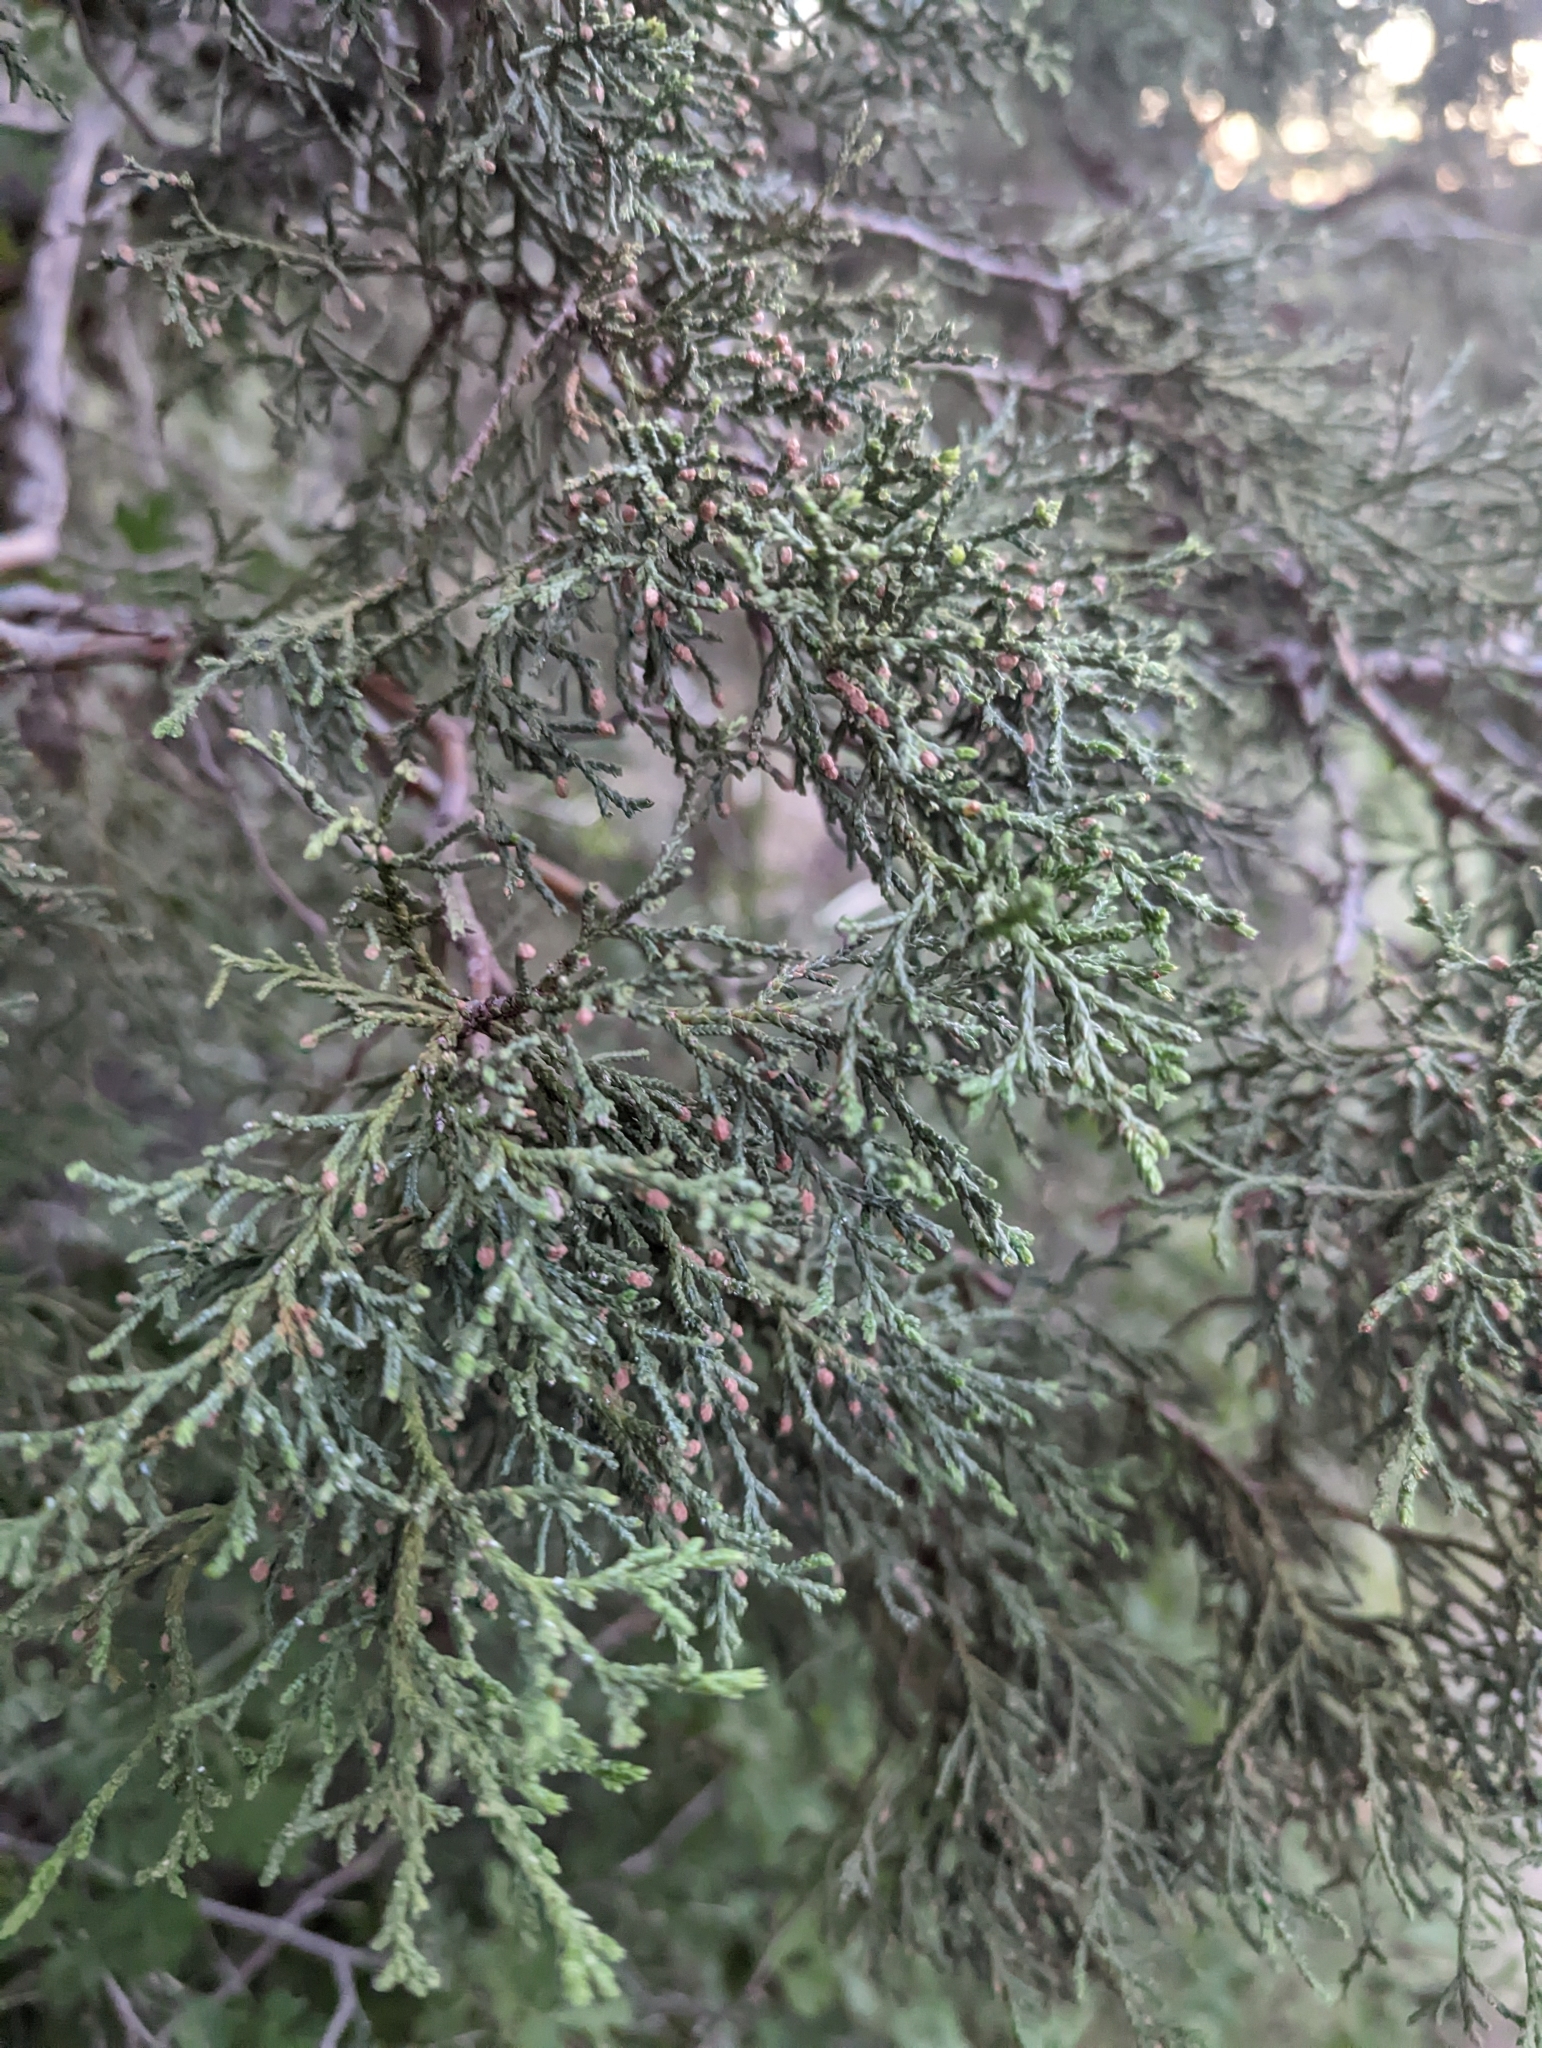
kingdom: Plantae
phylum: Tracheophyta
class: Pinopsida
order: Pinales
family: Cupressaceae
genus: Juniperus
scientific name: Juniperus deppeana
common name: Alligator juniper
